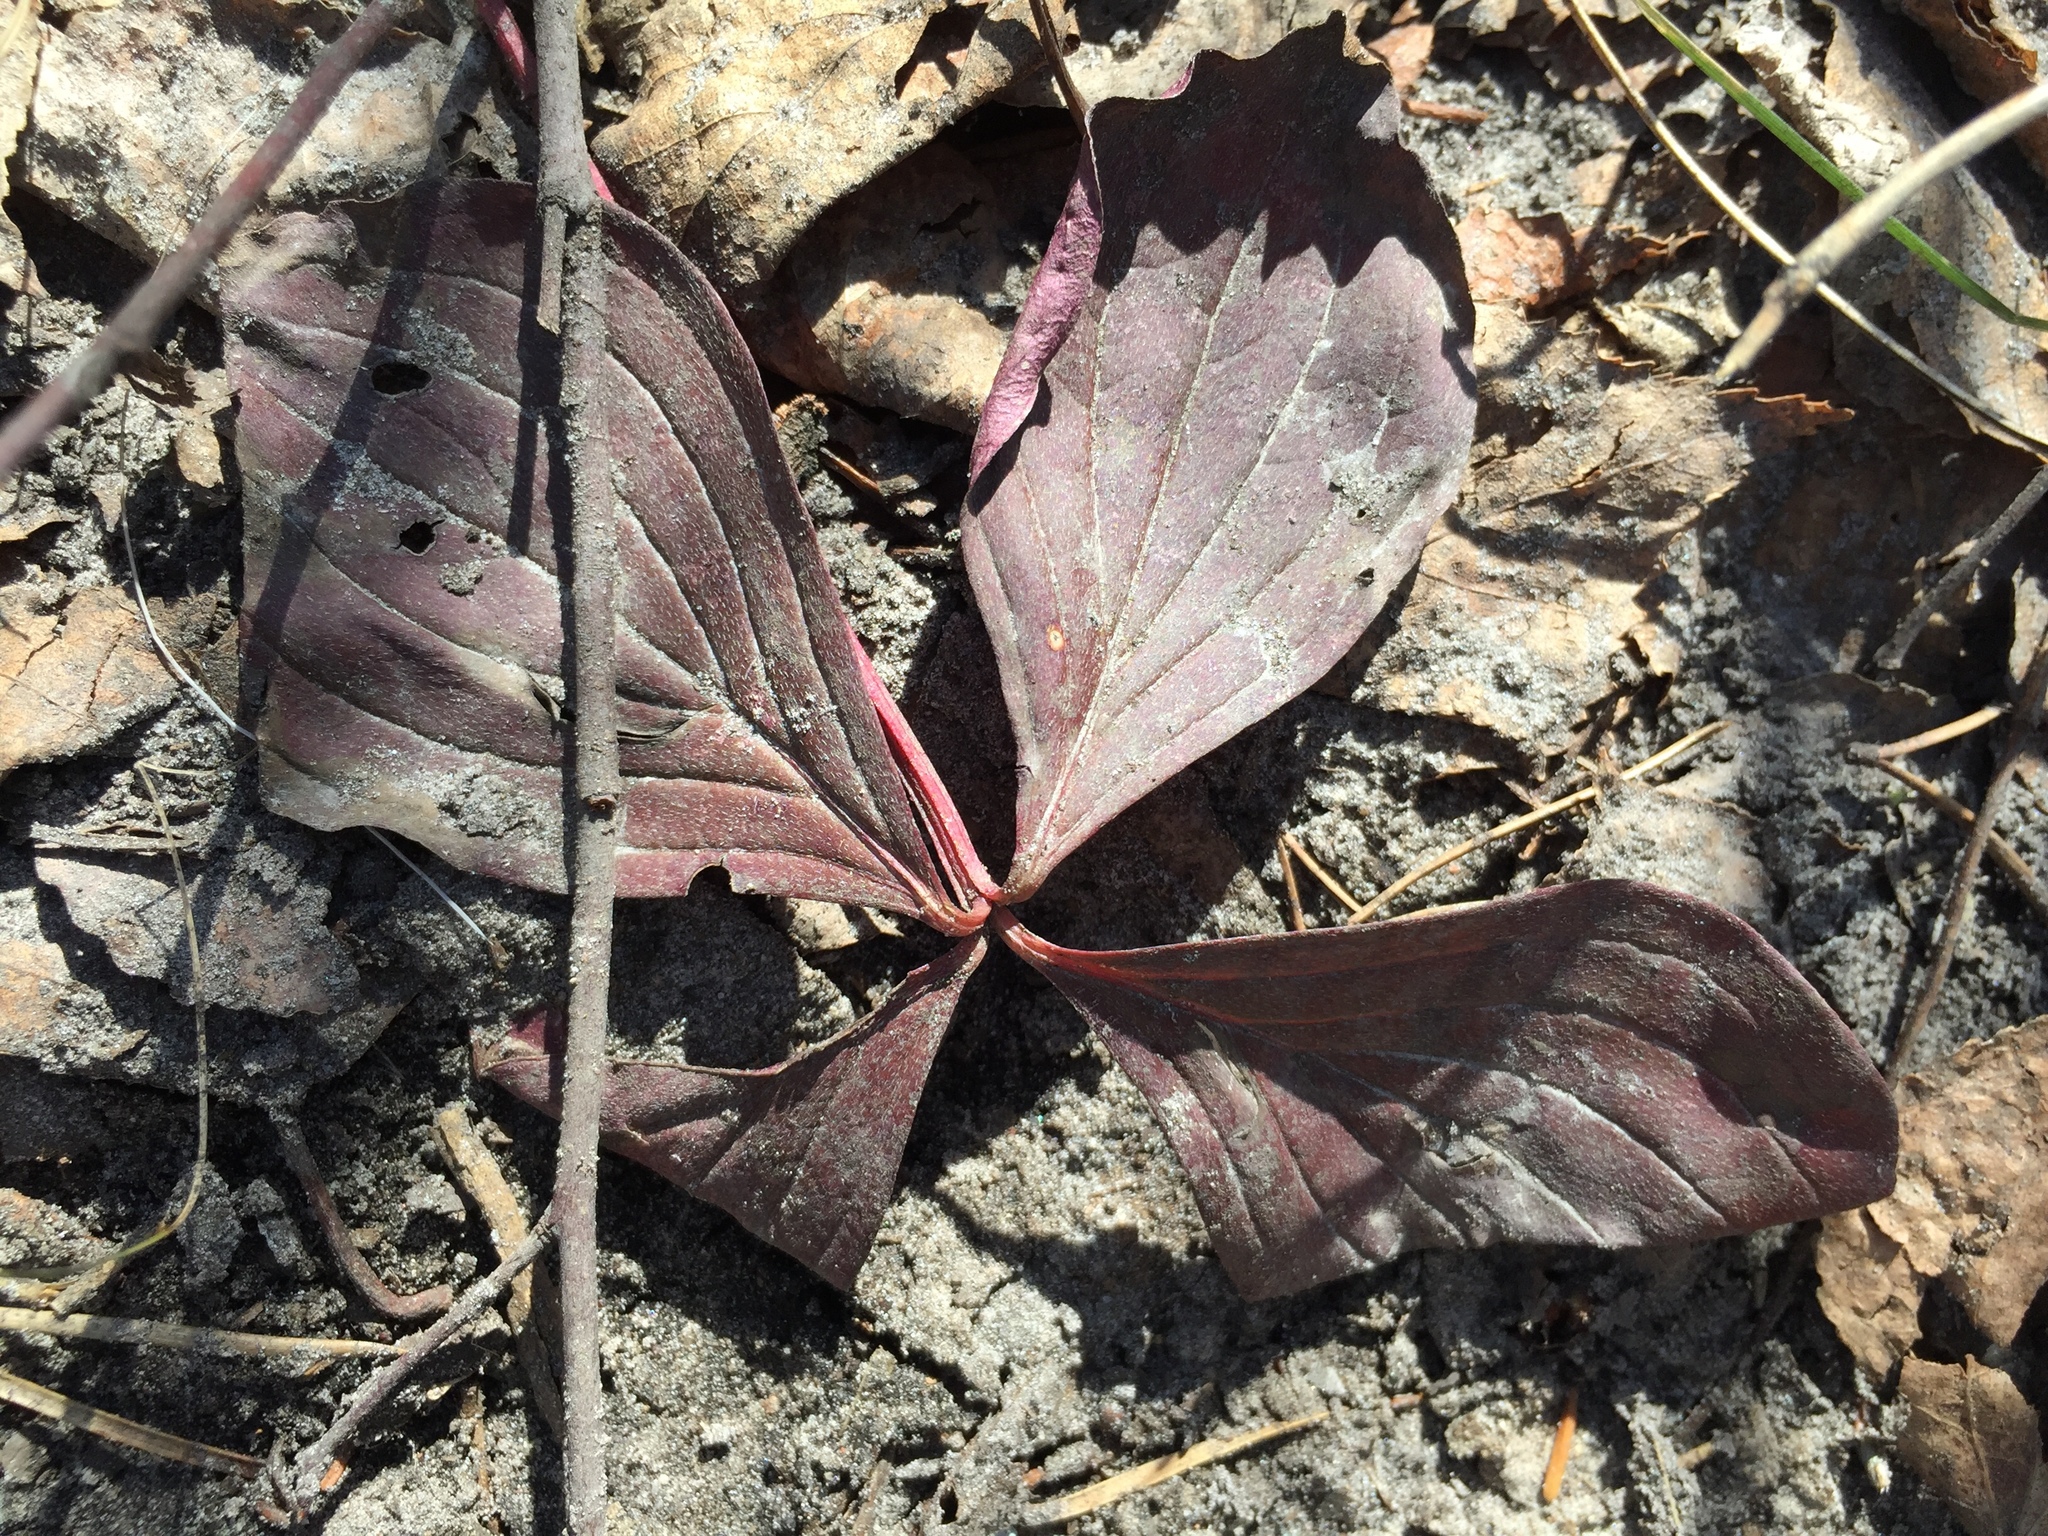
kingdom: Plantae
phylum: Tracheophyta
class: Magnoliopsida
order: Cornales
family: Cornaceae
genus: Cornus
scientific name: Cornus canadensis
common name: Creeping dogwood
